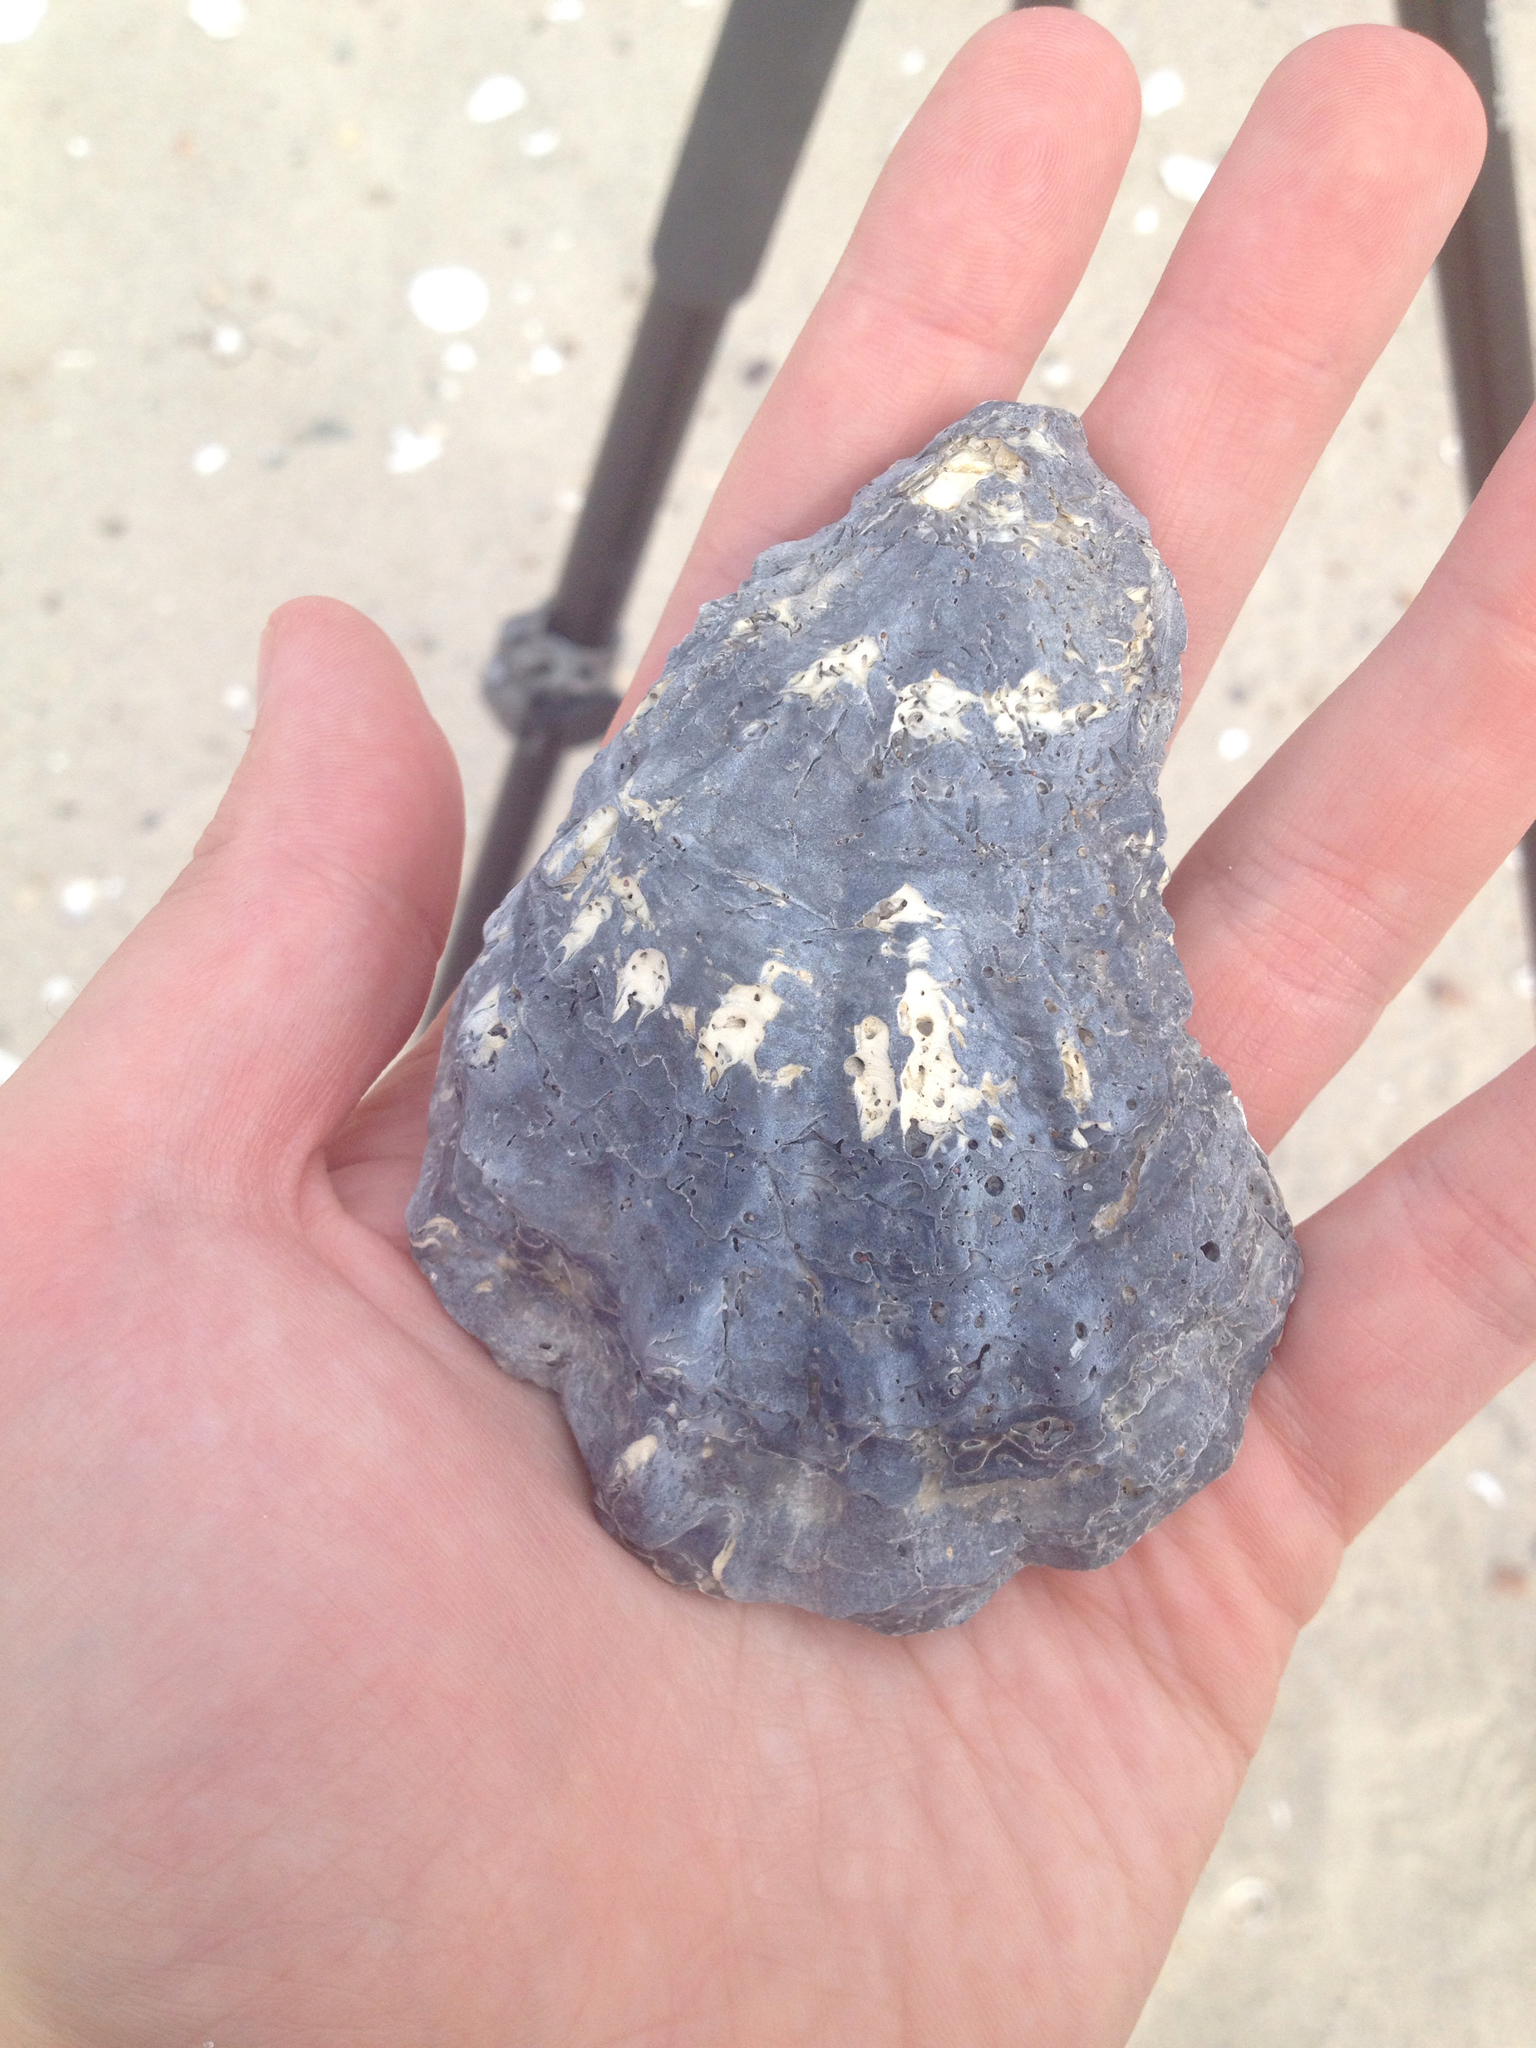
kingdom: Animalia
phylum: Mollusca
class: Bivalvia
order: Ostreida
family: Ostreidae
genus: Crassostrea
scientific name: Crassostrea virginica
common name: American oyster
